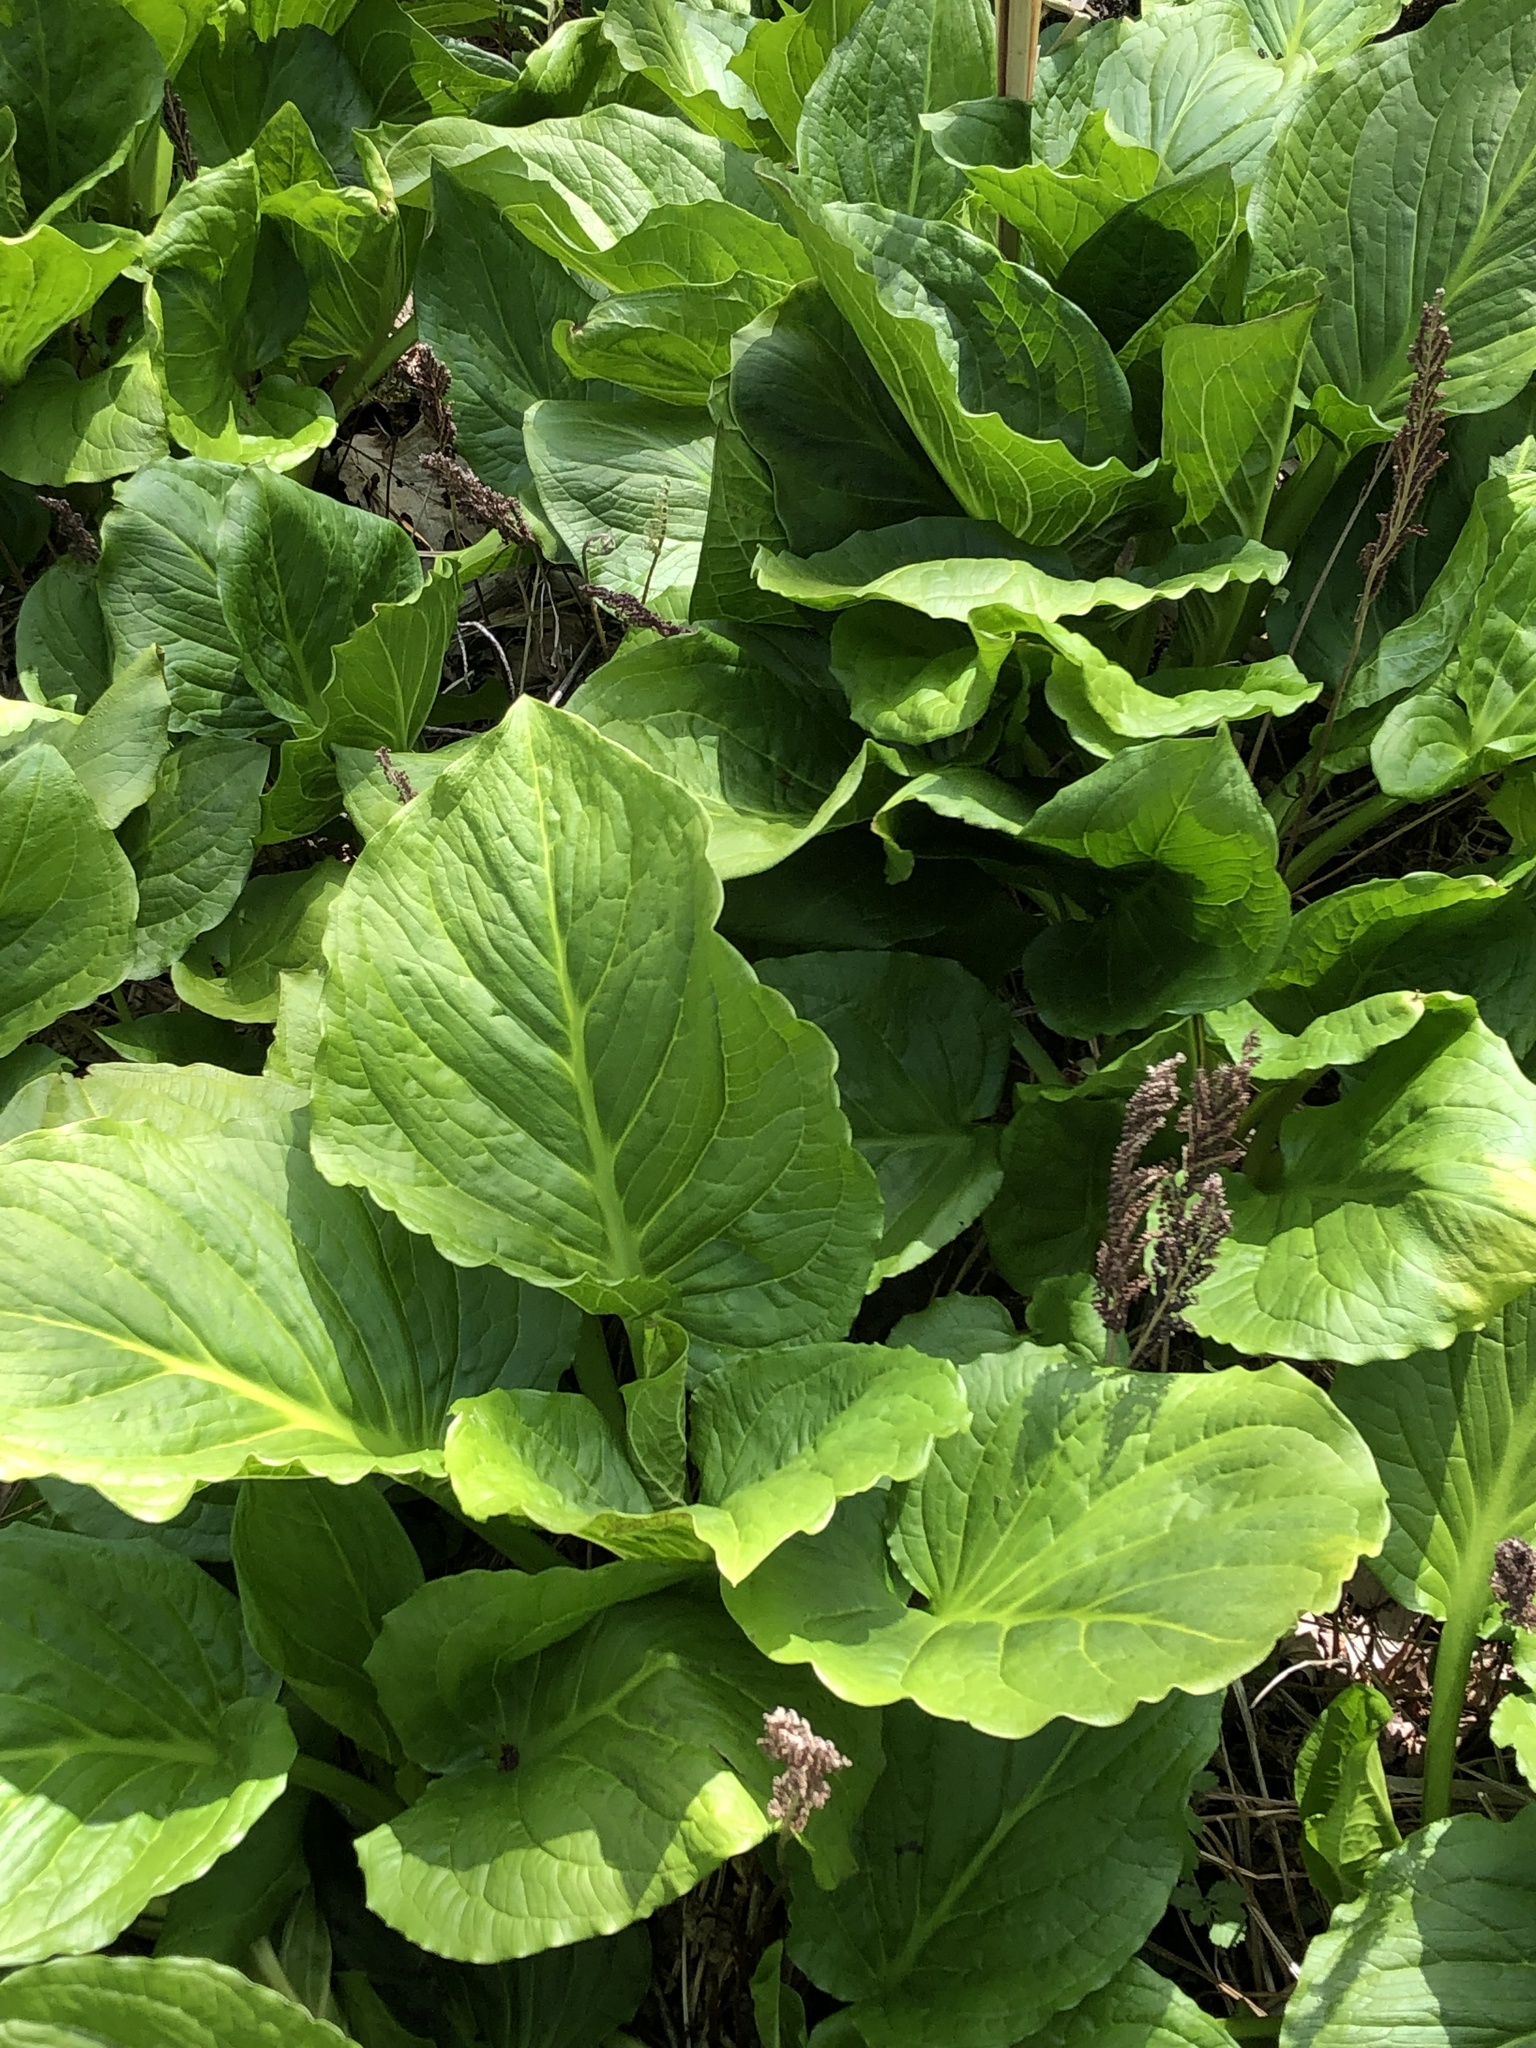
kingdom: Plantae
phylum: Tracheophyta
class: Liliopsida
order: Alismatales
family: Araceae
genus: Symplocarpus
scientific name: Symplocarpus foetidus
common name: Eastern skunk cabbage
